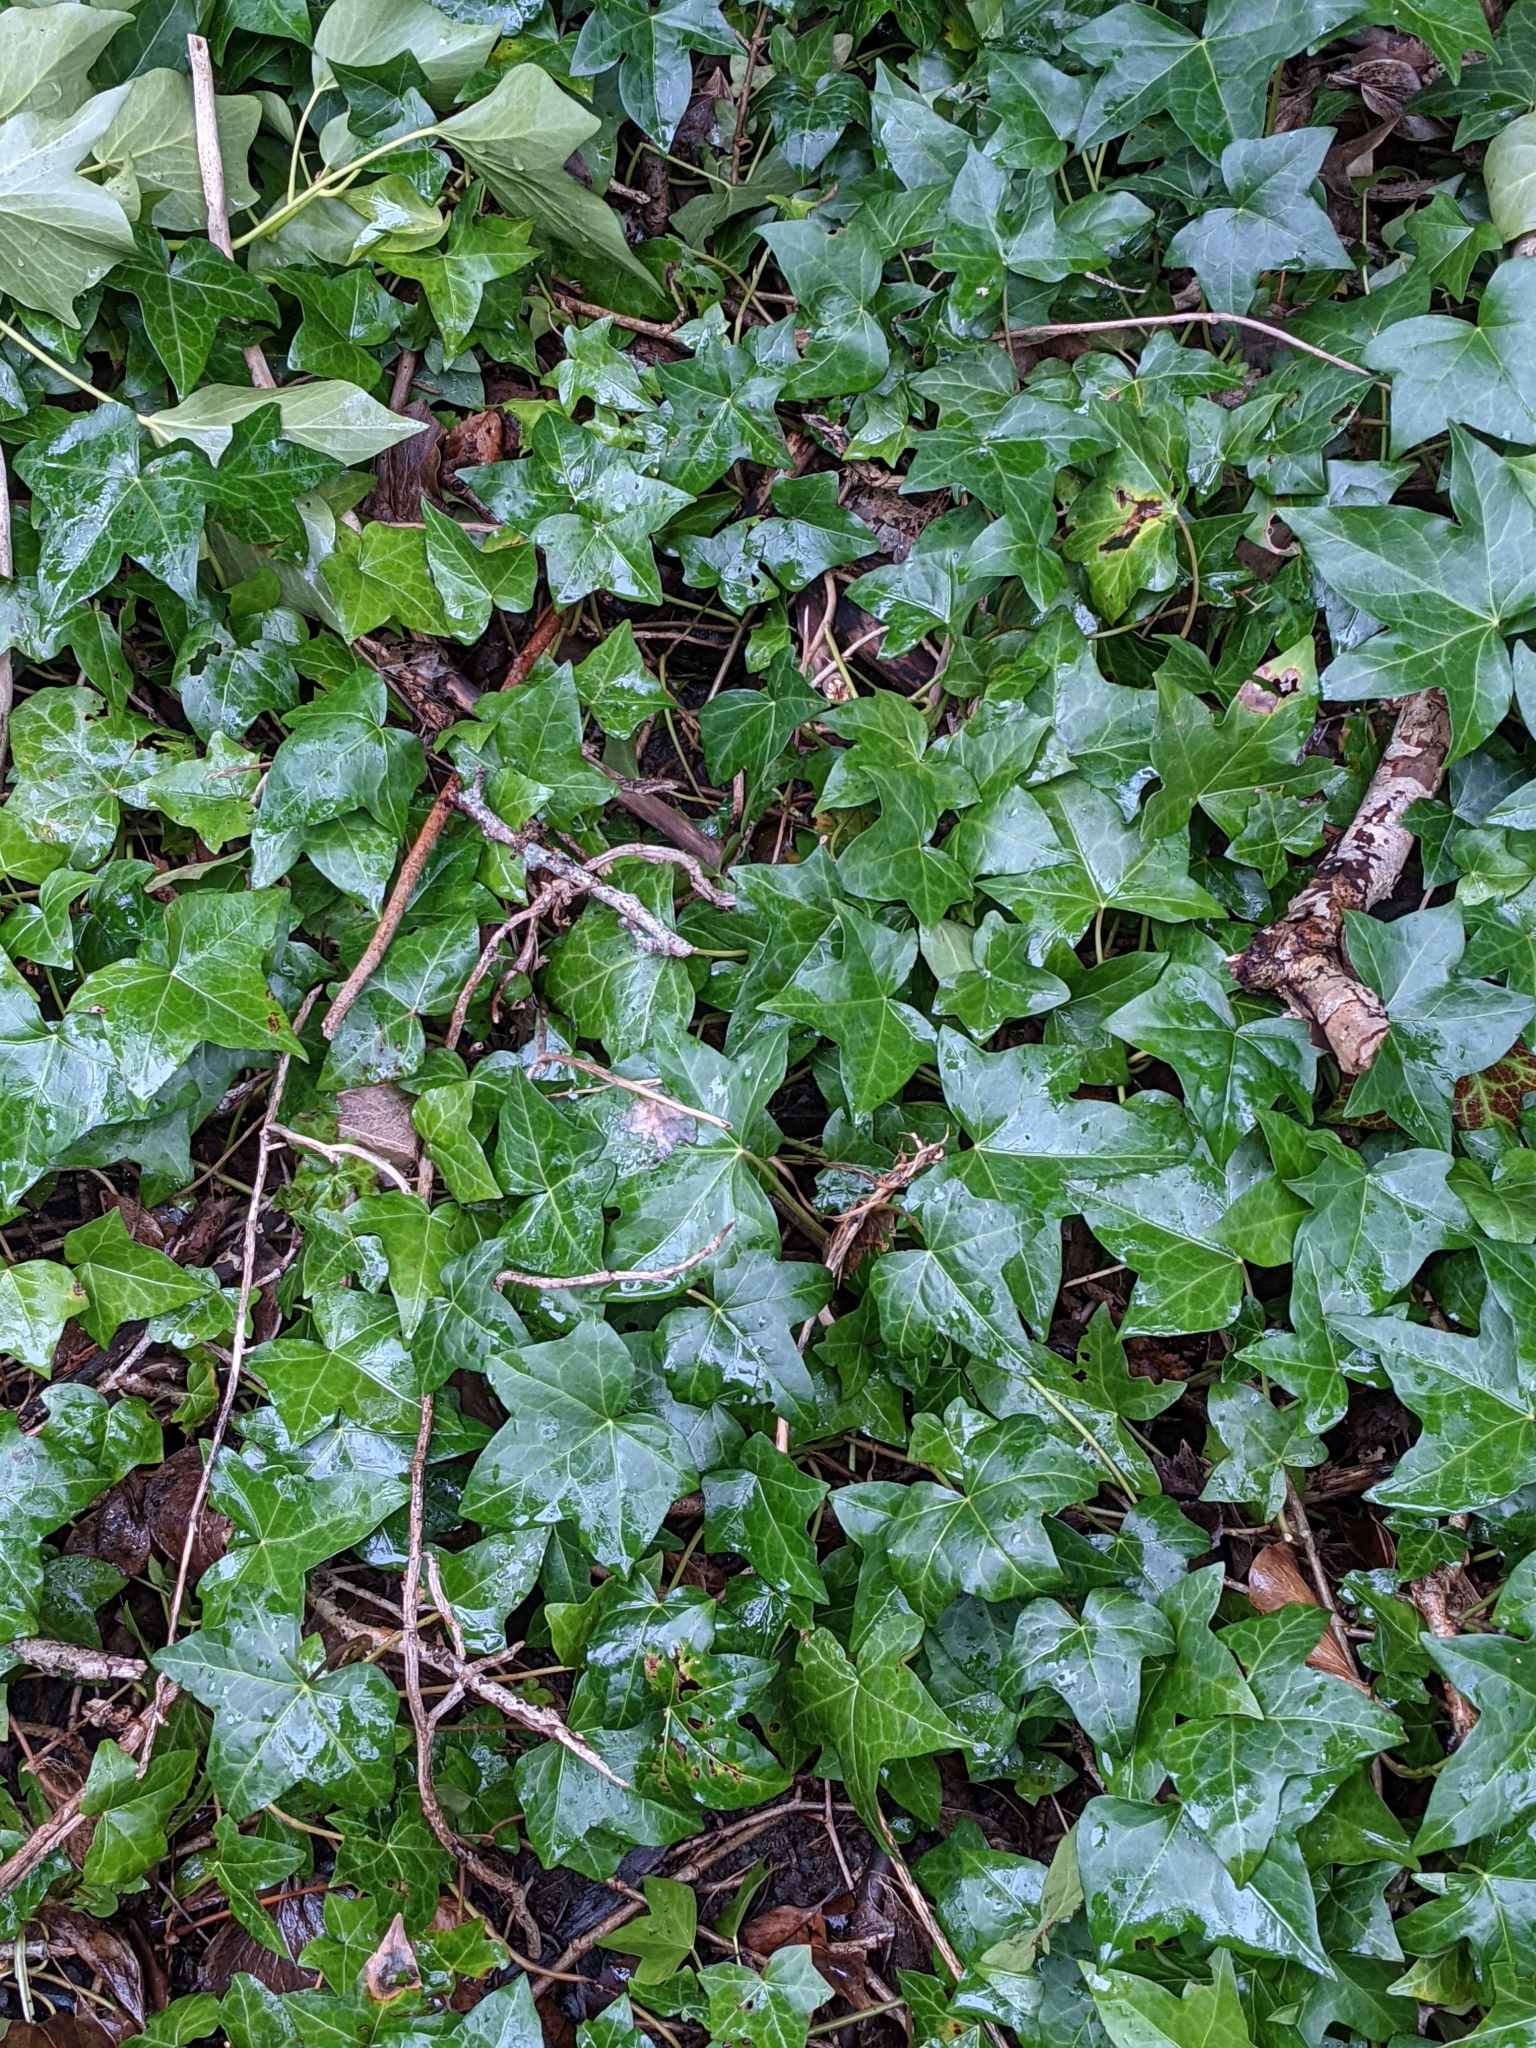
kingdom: Plantae
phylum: Tracheophyta
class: Magnoliopsida
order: Apiales
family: Araliaceae
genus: Hedera
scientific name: Hedera helix
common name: Ivy
